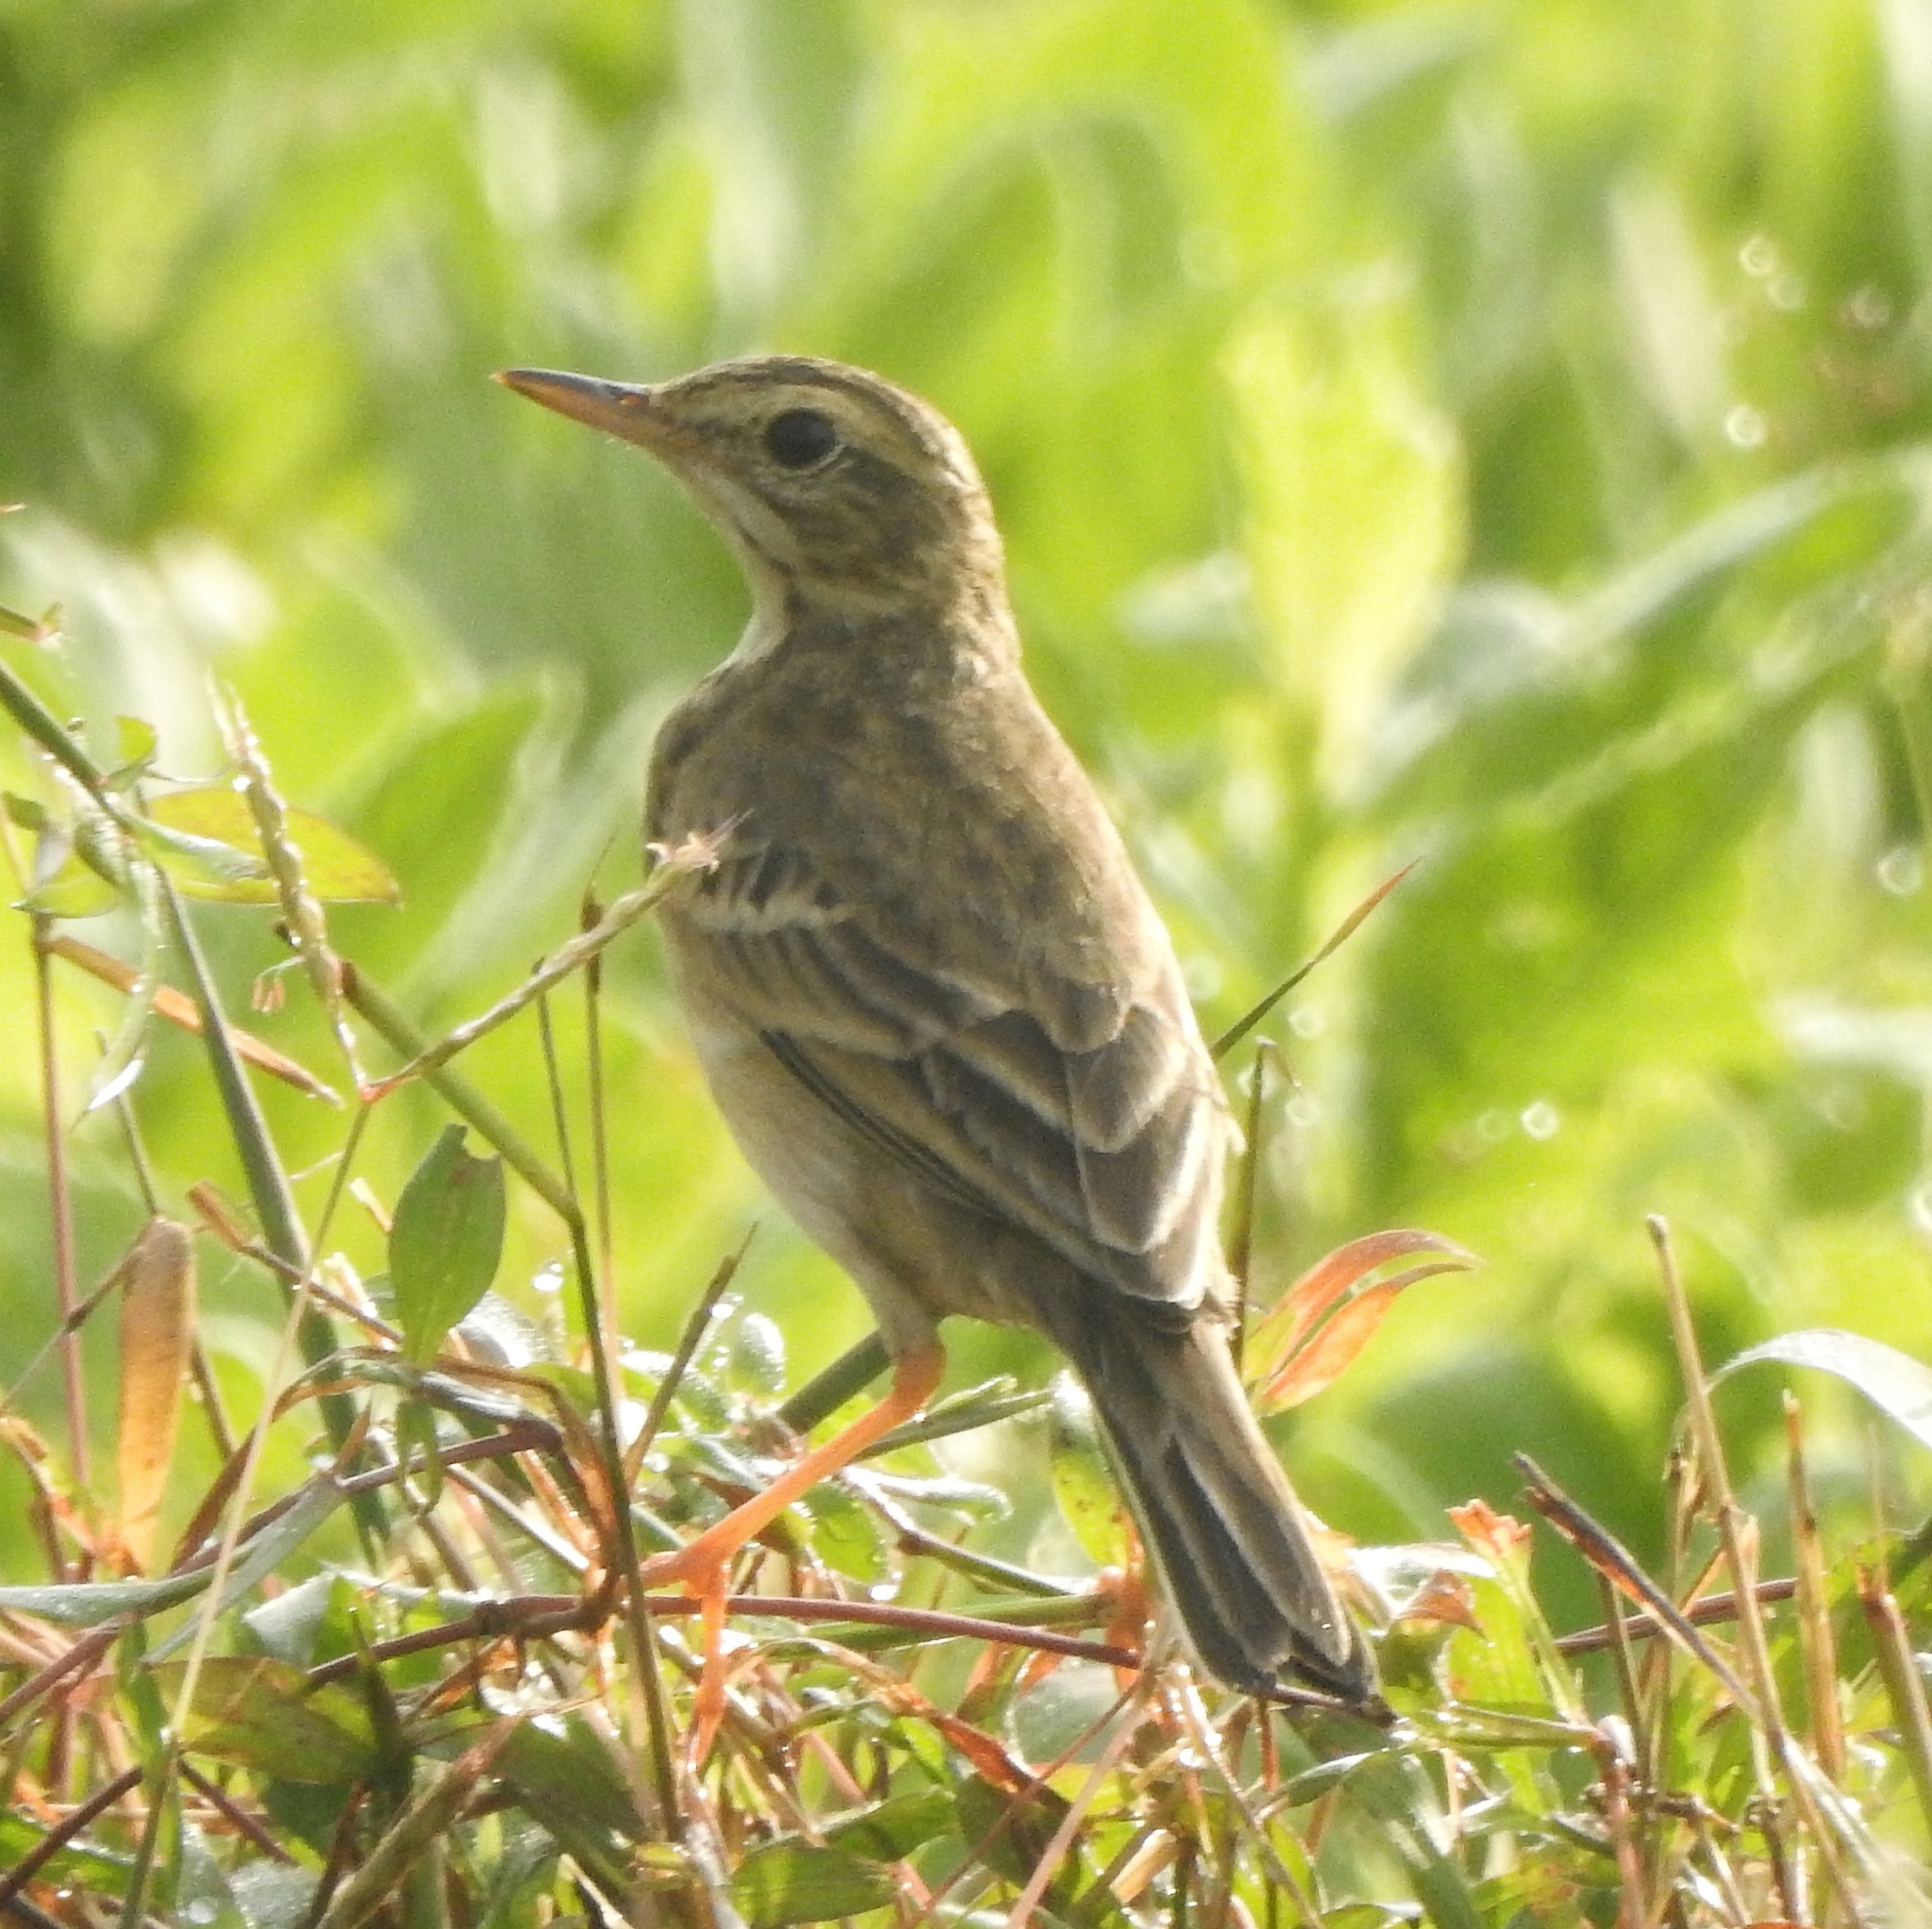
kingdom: Animalia
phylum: Chordata
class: Aves
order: Passeriformes
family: Motacillidae
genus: Anthus
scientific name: Anthus rufulus
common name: Paddyfield pipit
